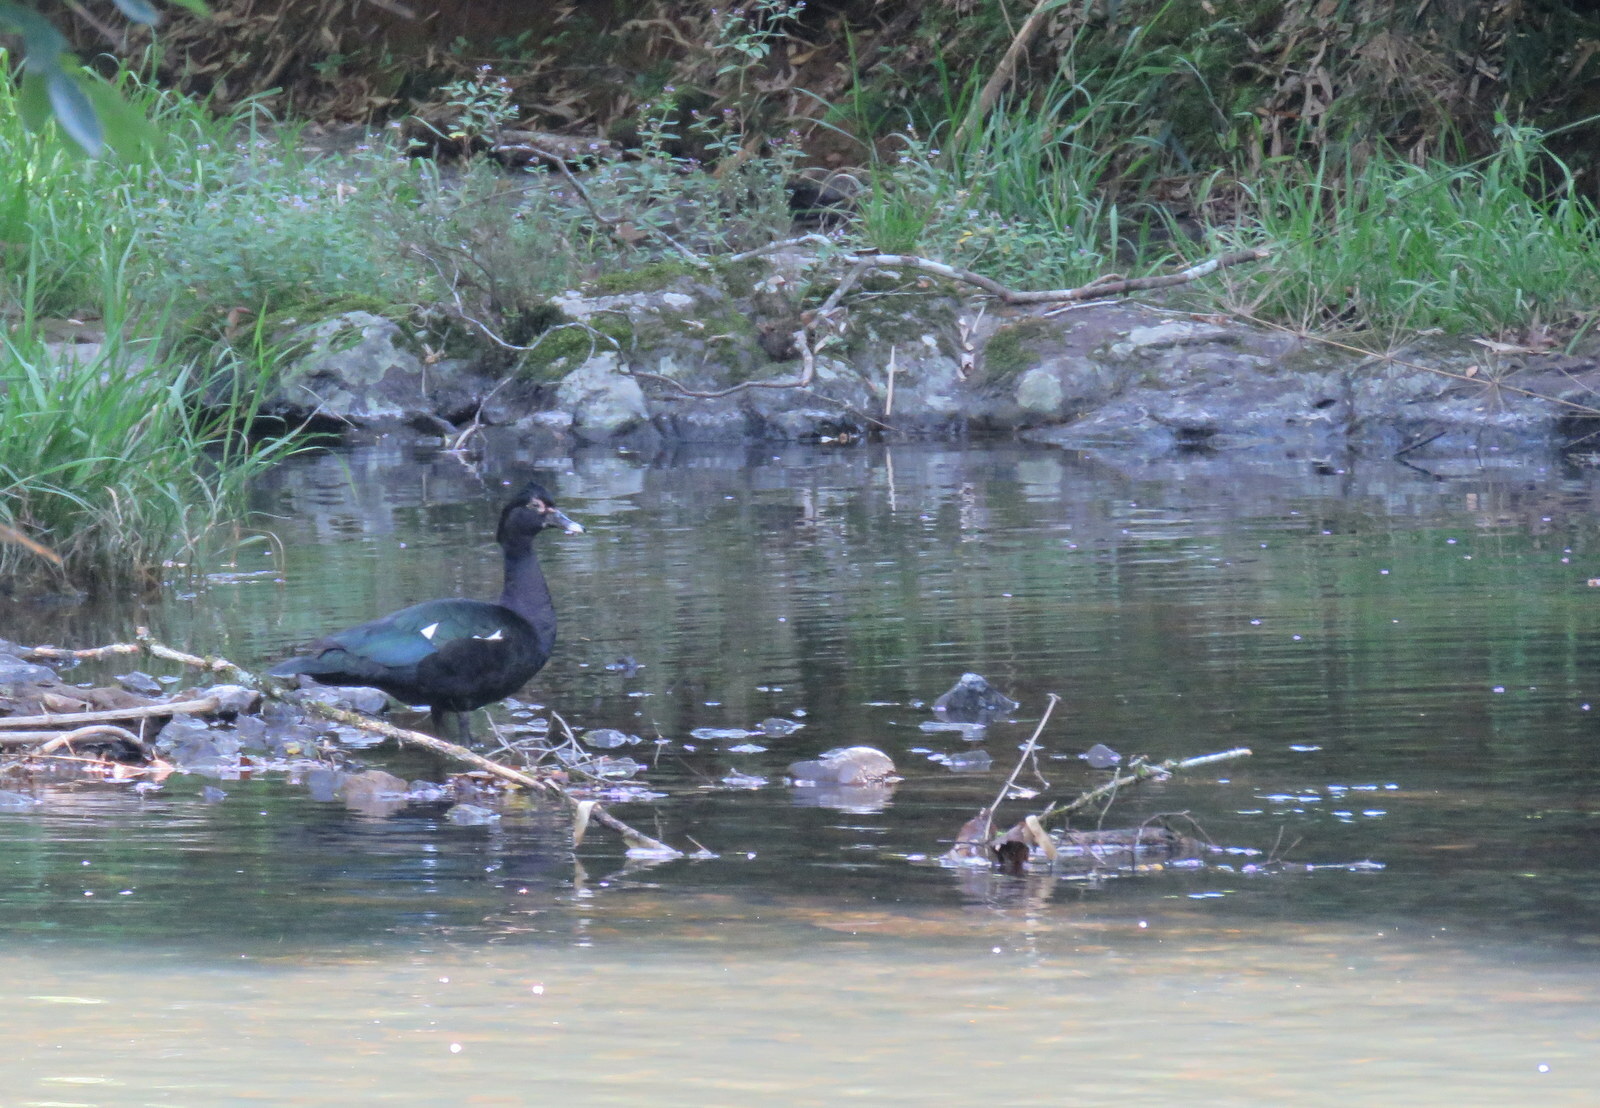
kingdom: Animalia
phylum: Chordata
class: Aves
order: Anseriformes
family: Anatidae
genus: Cairina
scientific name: Cairina moschata
